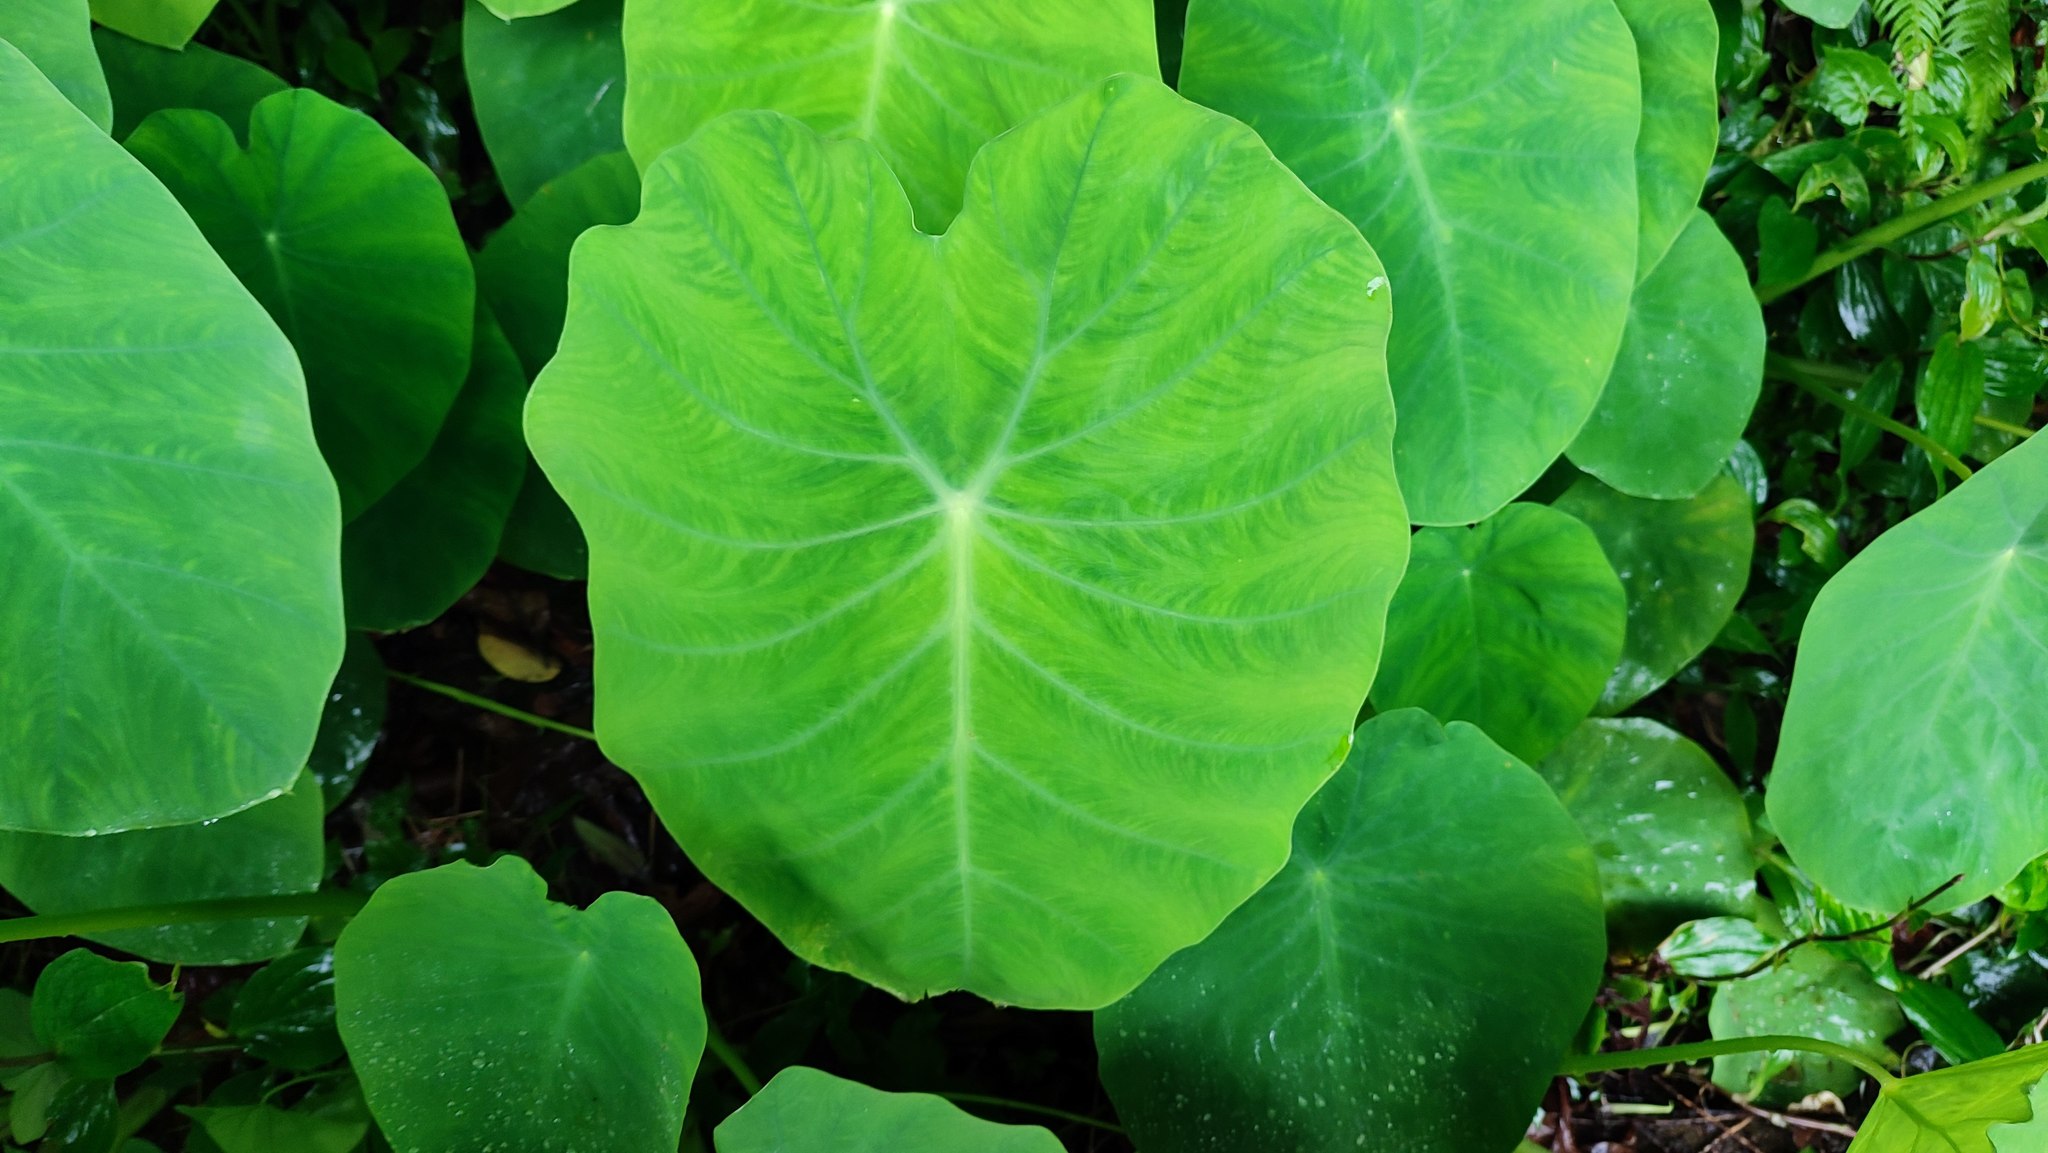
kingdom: Plantae
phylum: Tracheophyta
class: Liliopsida
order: Alismatales
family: Araceae
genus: Colocasia
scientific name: Colocasia esculenta
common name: Taro
